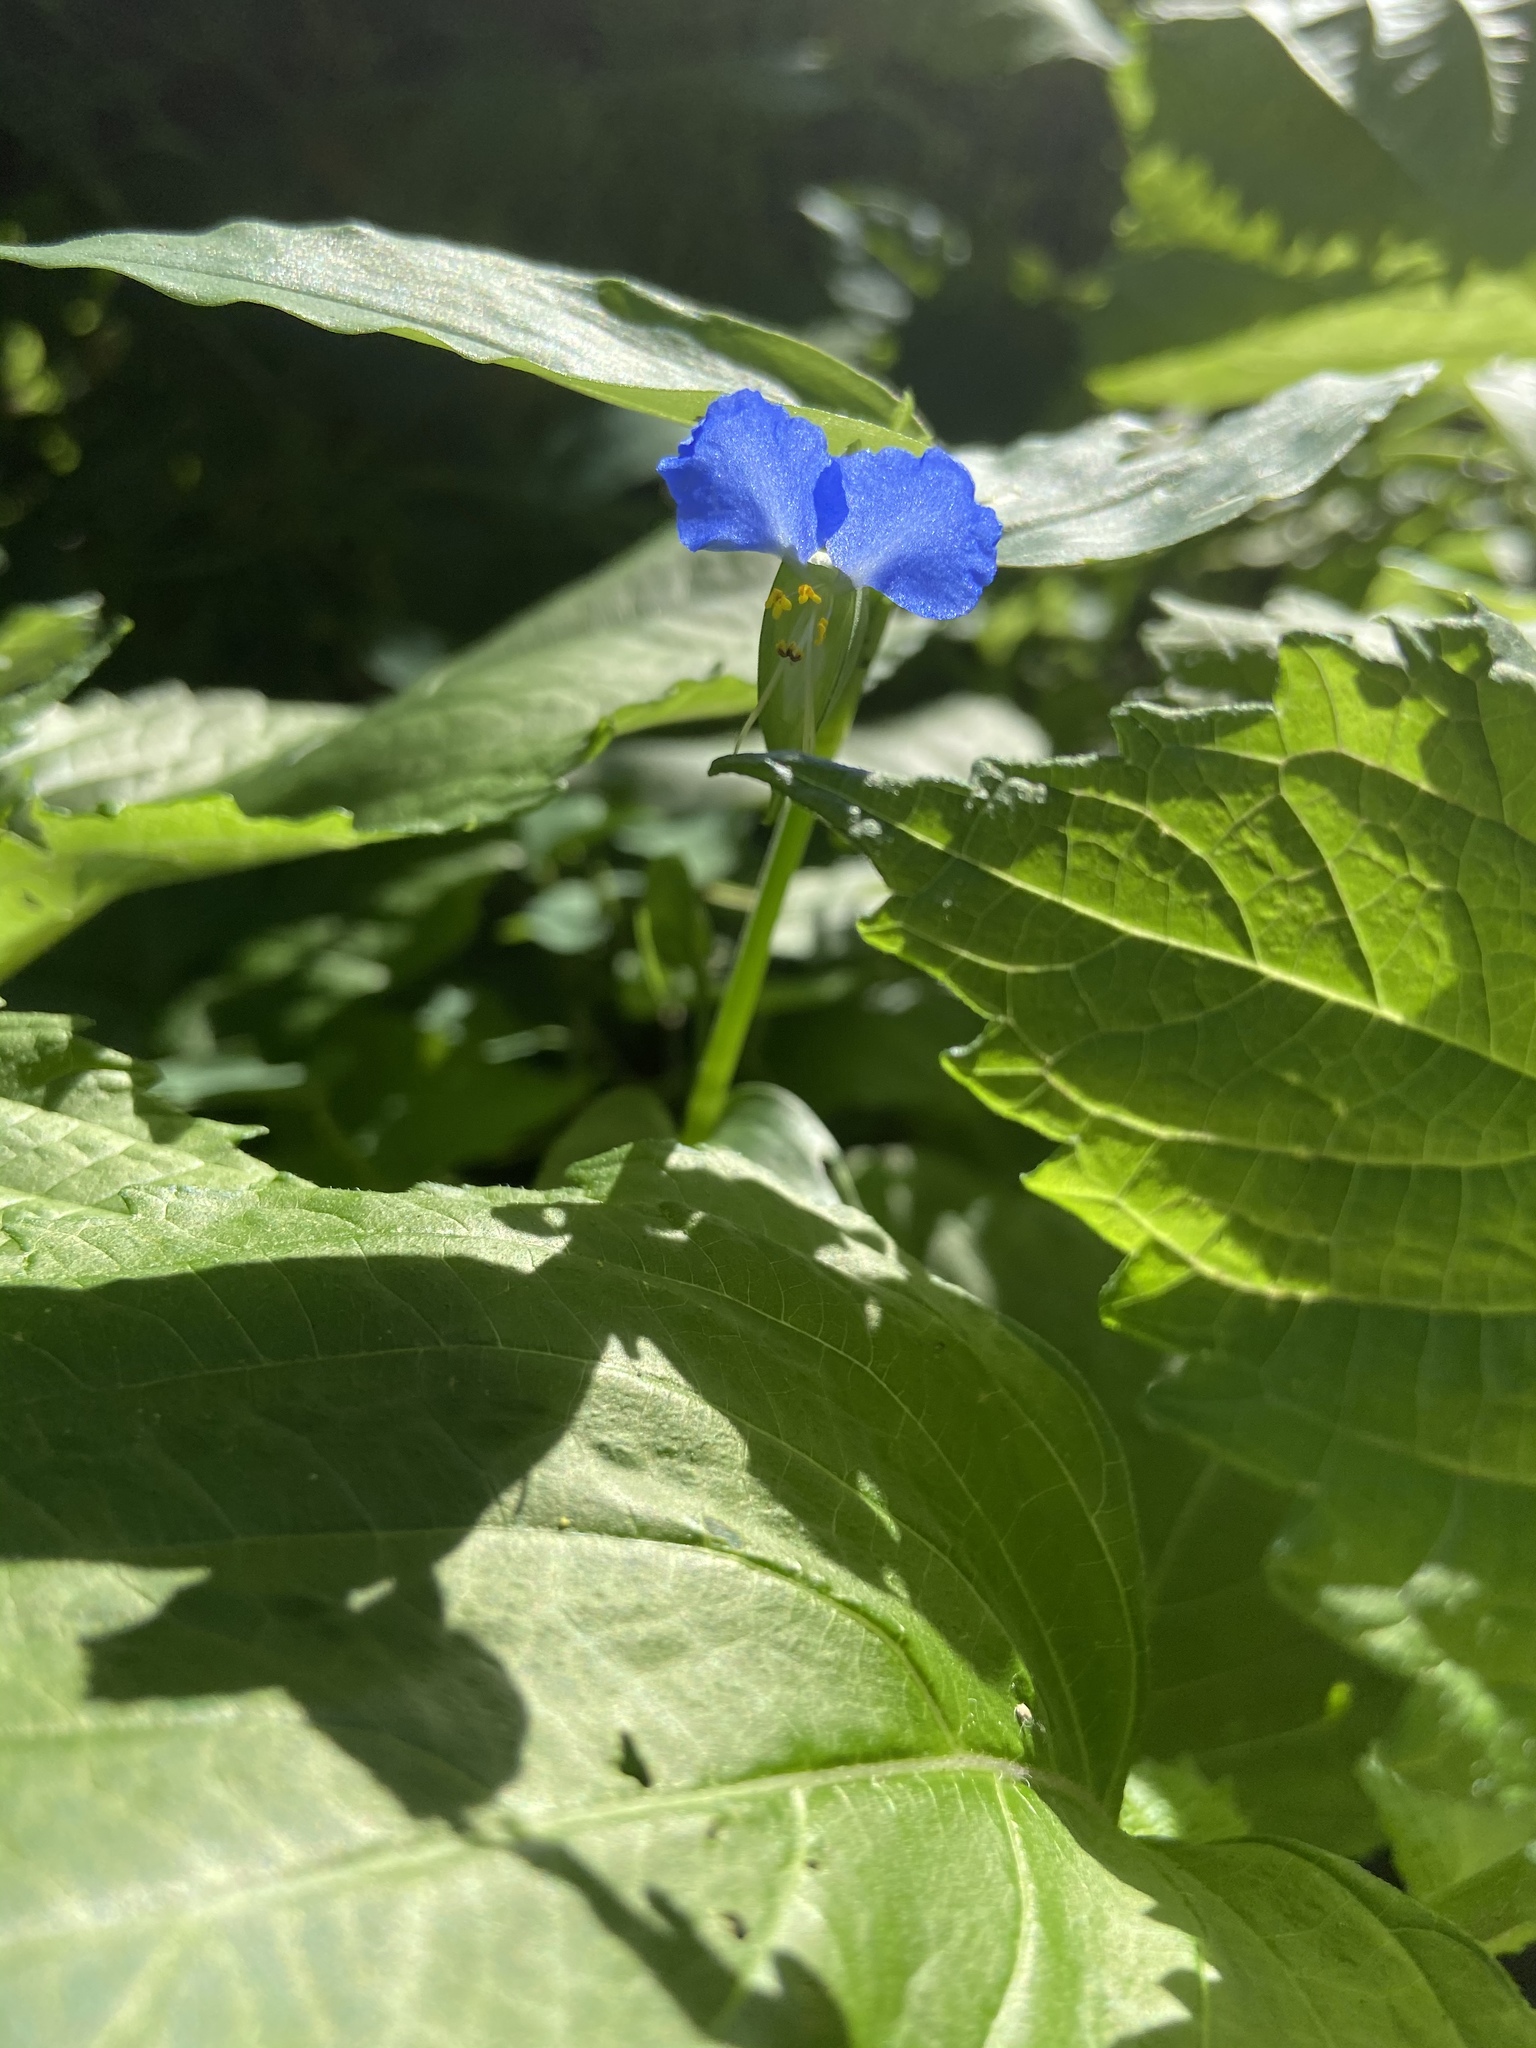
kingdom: Plantae
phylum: Tracheophyta
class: Liliopsida
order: Commelinales
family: Commelinaceae
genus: Commelina
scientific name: Commelina communis
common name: Asiatic dayflower
